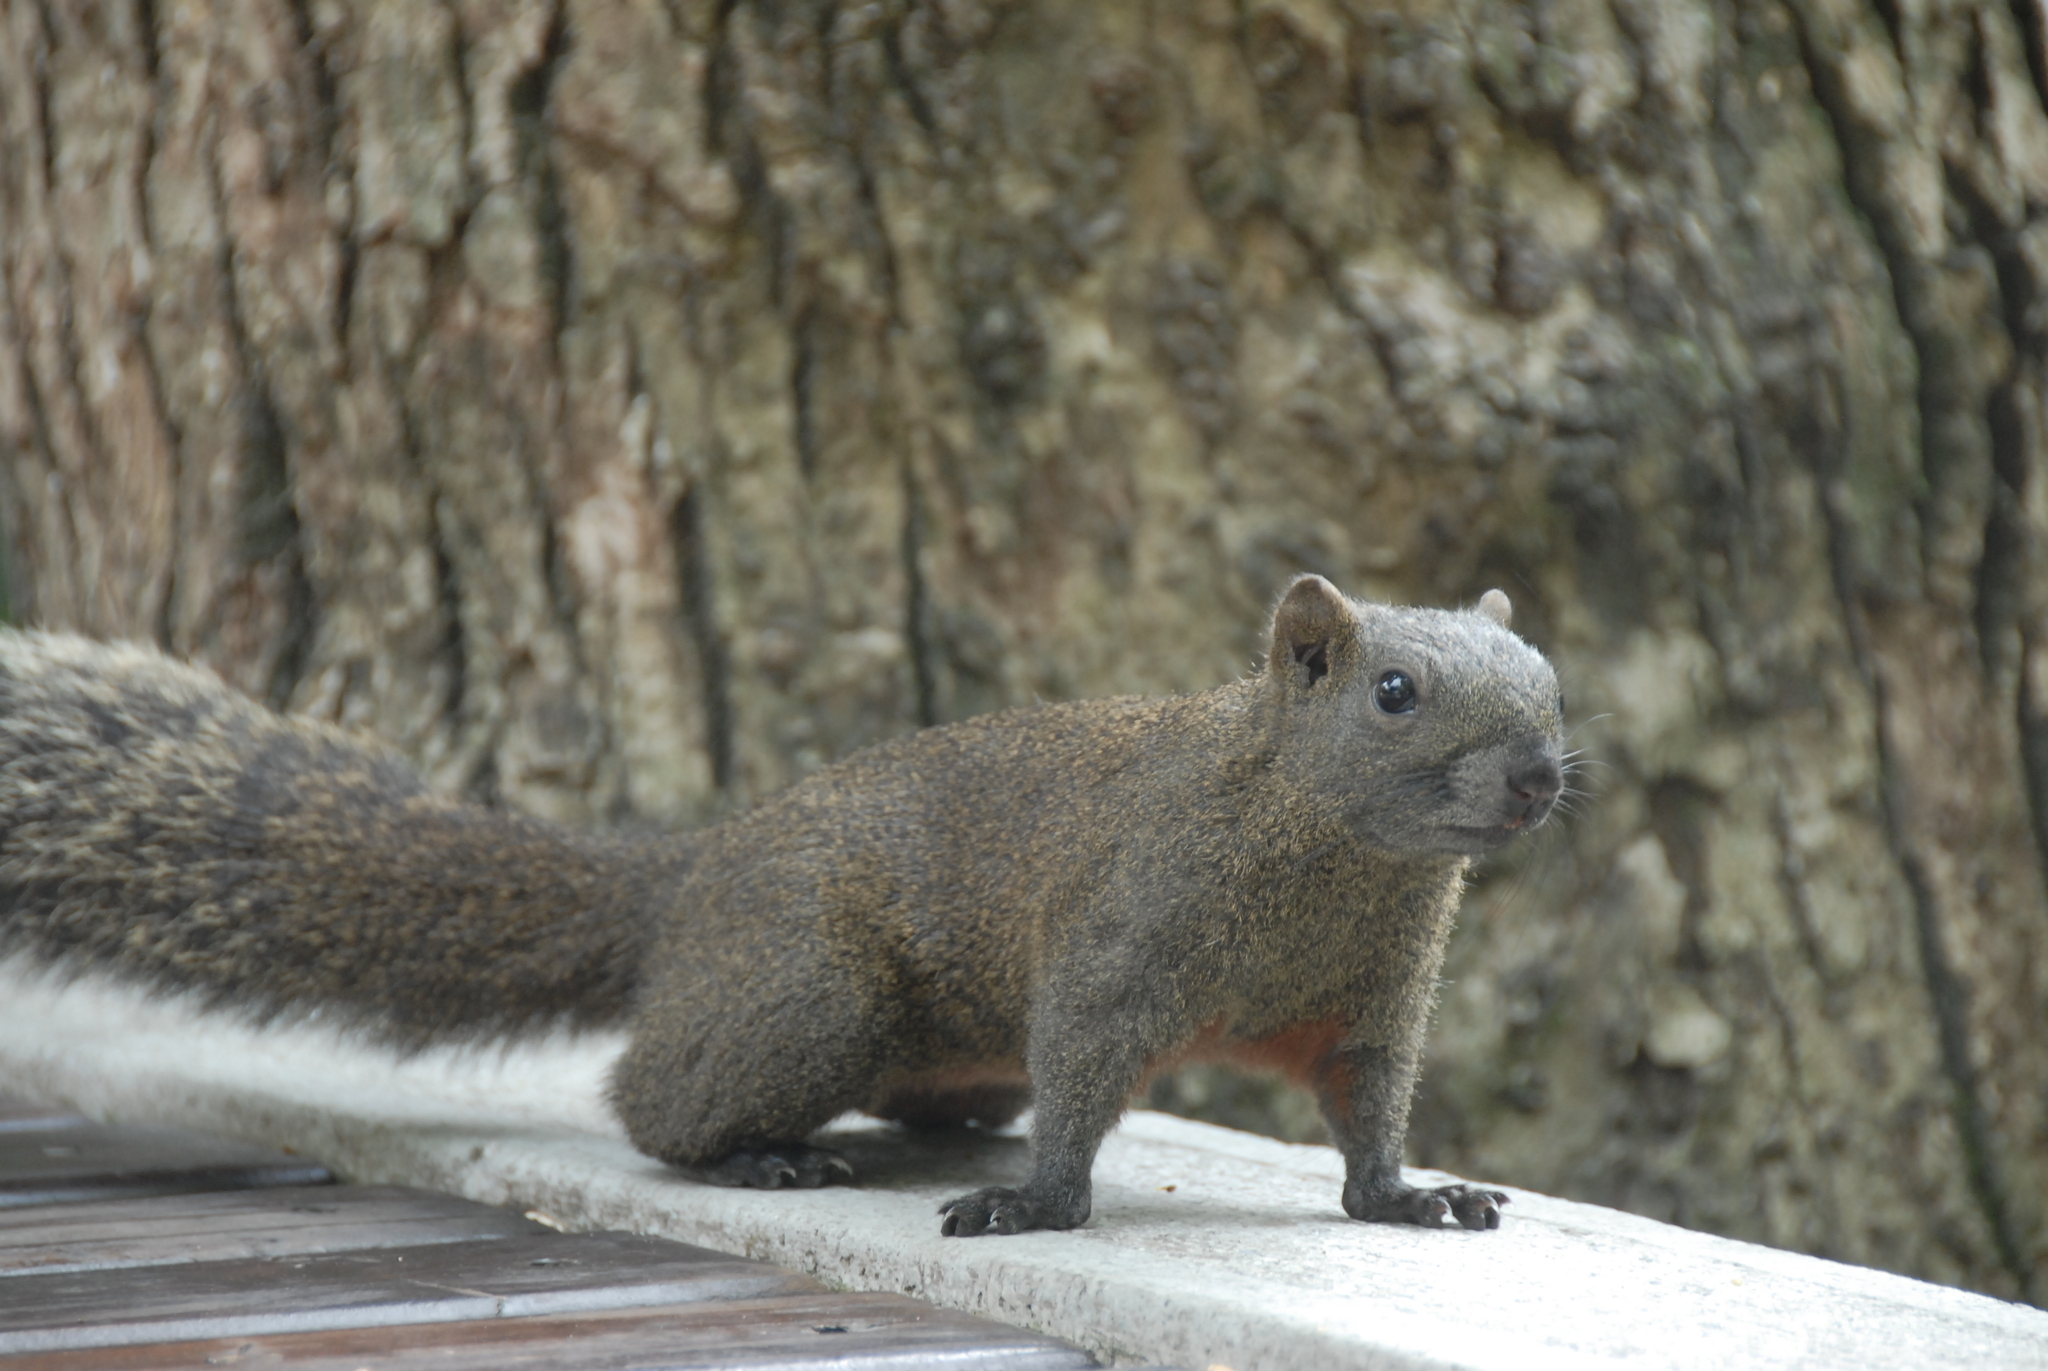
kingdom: Animalia
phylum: Chordata
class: Mammalia
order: Rodentia
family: Sciuridae
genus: Callosciurus
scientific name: Callosciurus erythraeus
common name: Pallas's squirrel
